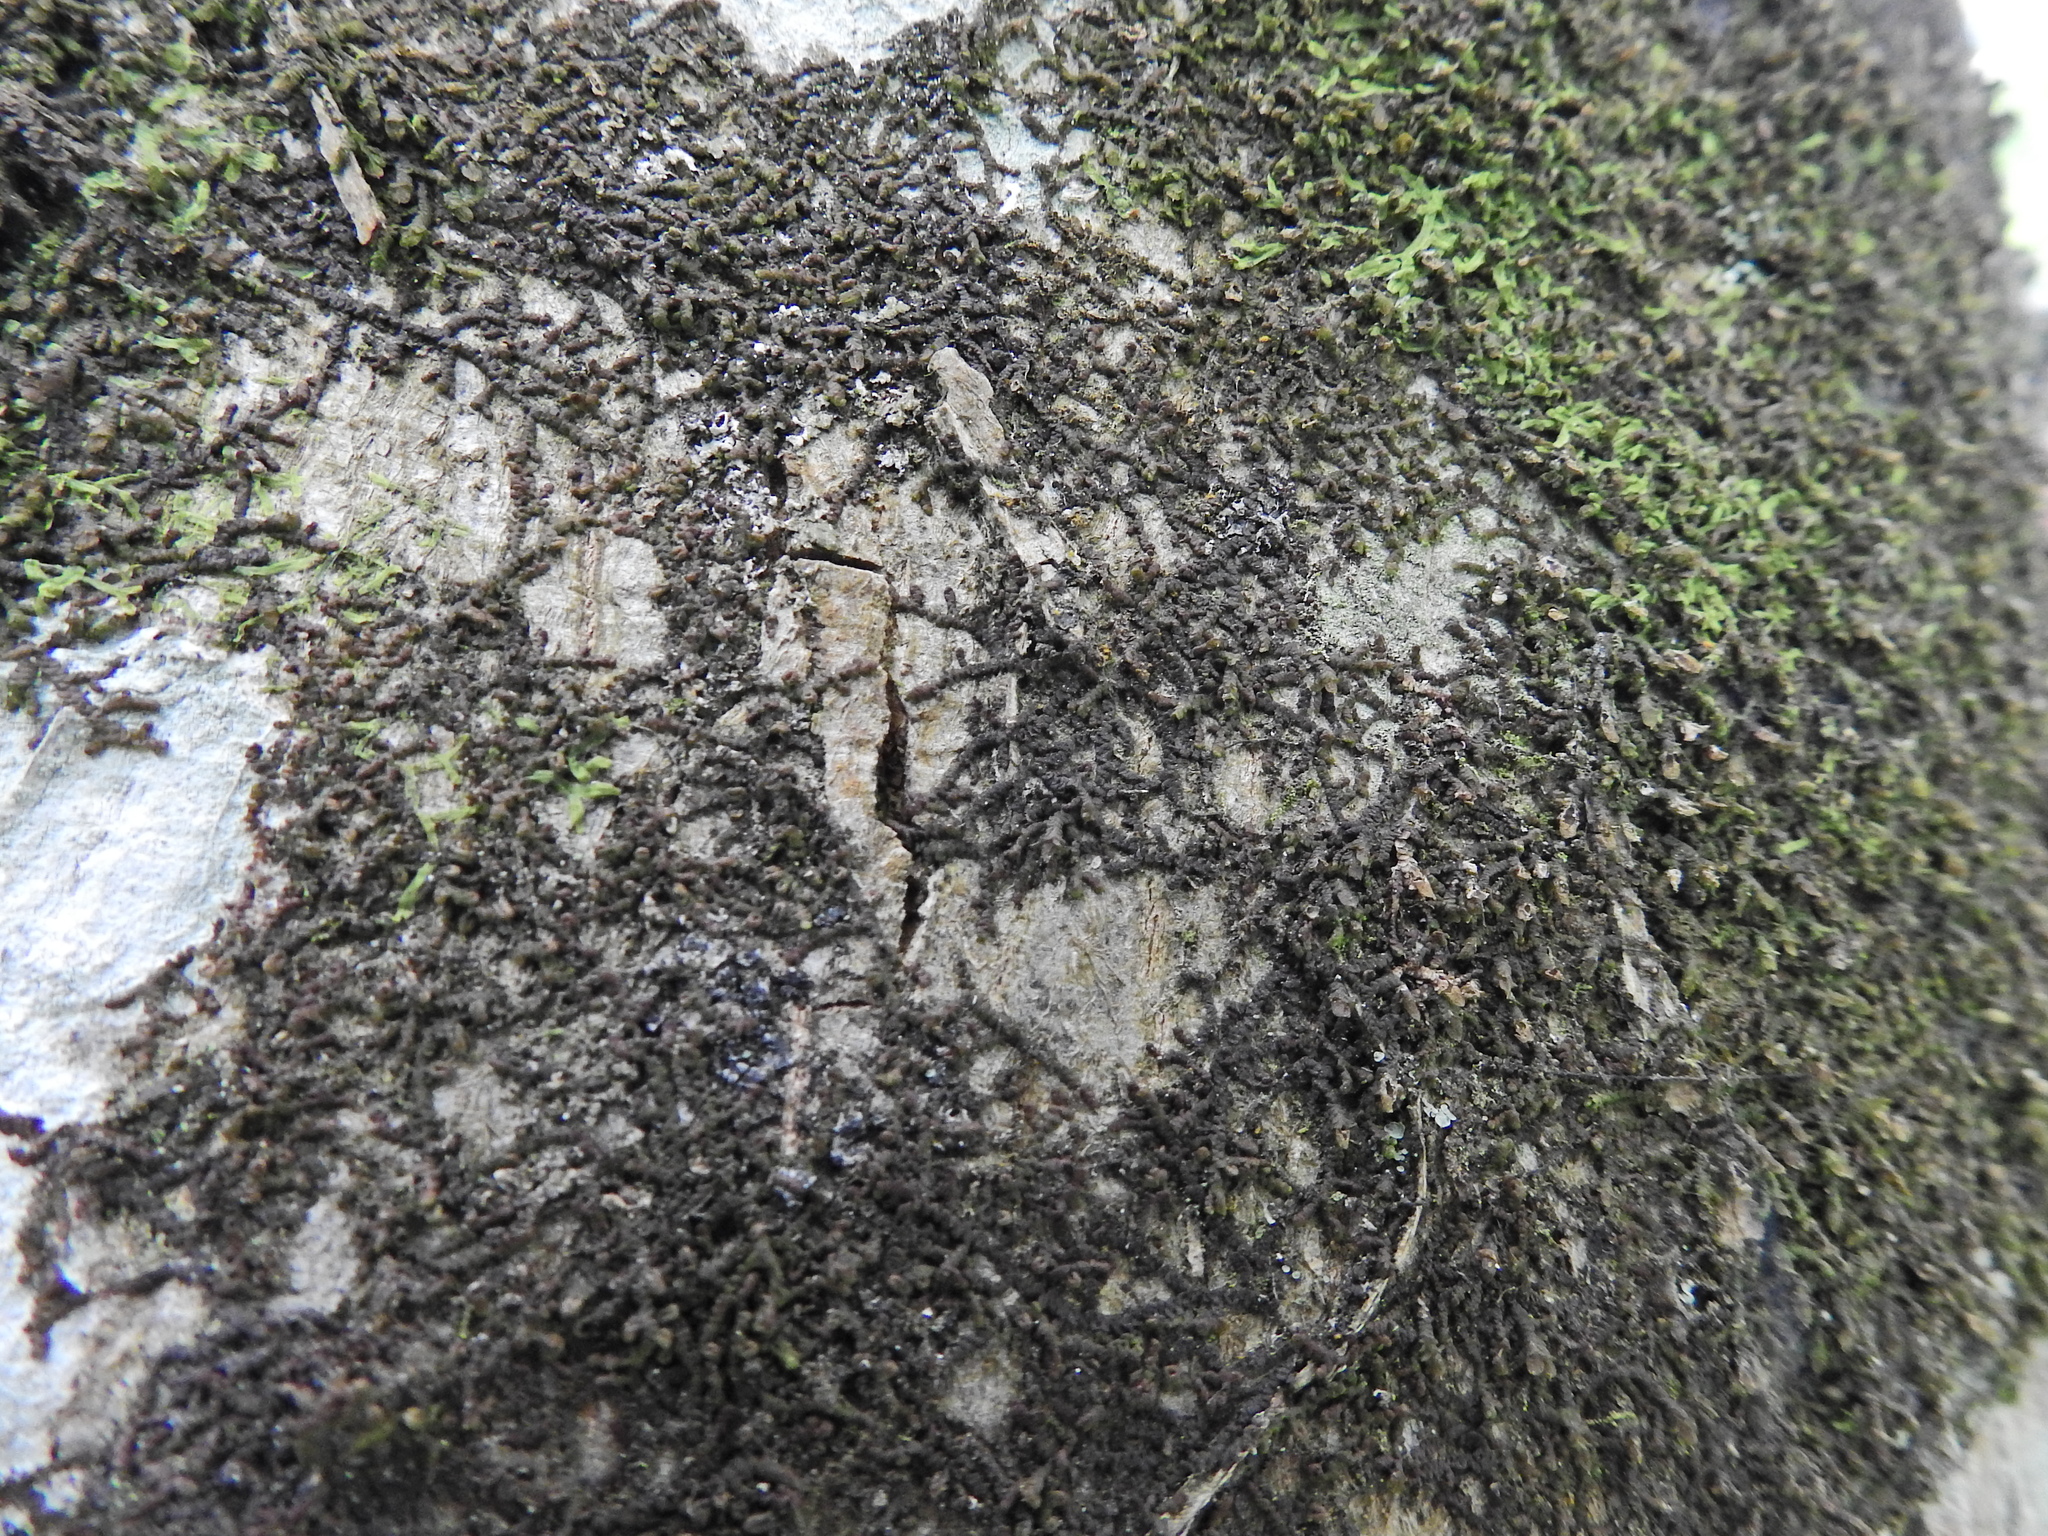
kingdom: Plantae
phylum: Marchantiophyta
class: Jungermanniopsida
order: Porellales
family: Frullaniaceae
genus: Frullania
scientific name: Frullania dilatata
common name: Dilated scalewort
